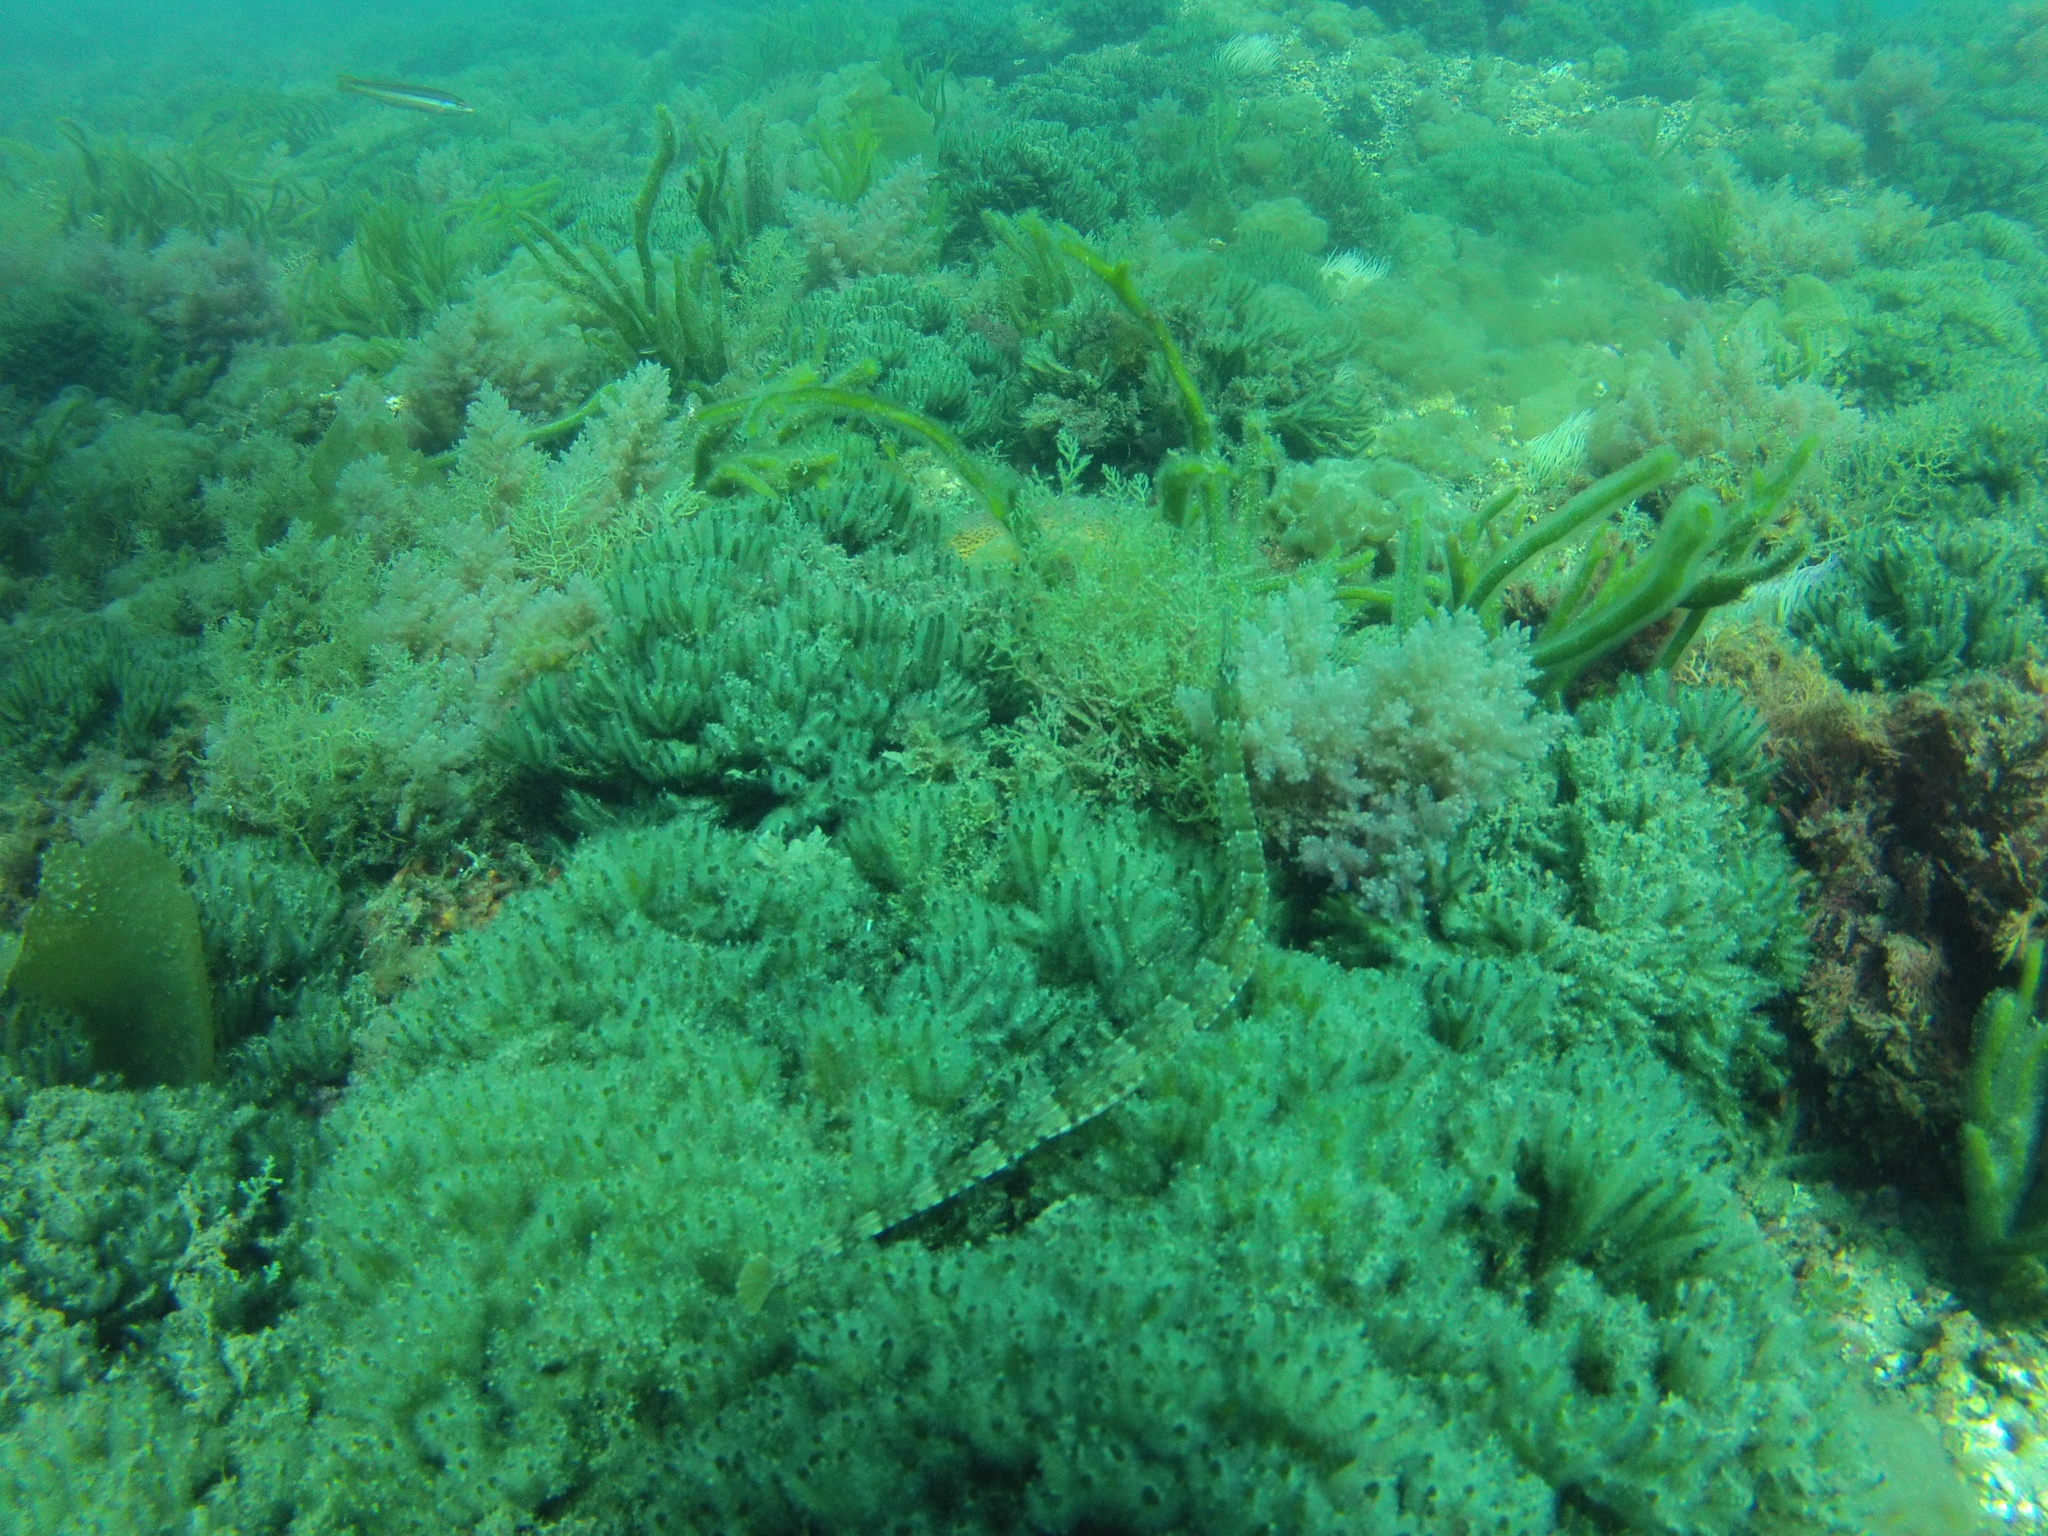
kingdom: Animalia
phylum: Chordata
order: Syngnathiformes
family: Syngnathidae
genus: Syngnathus
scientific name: Syngnathus acus
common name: Greater pipefish
